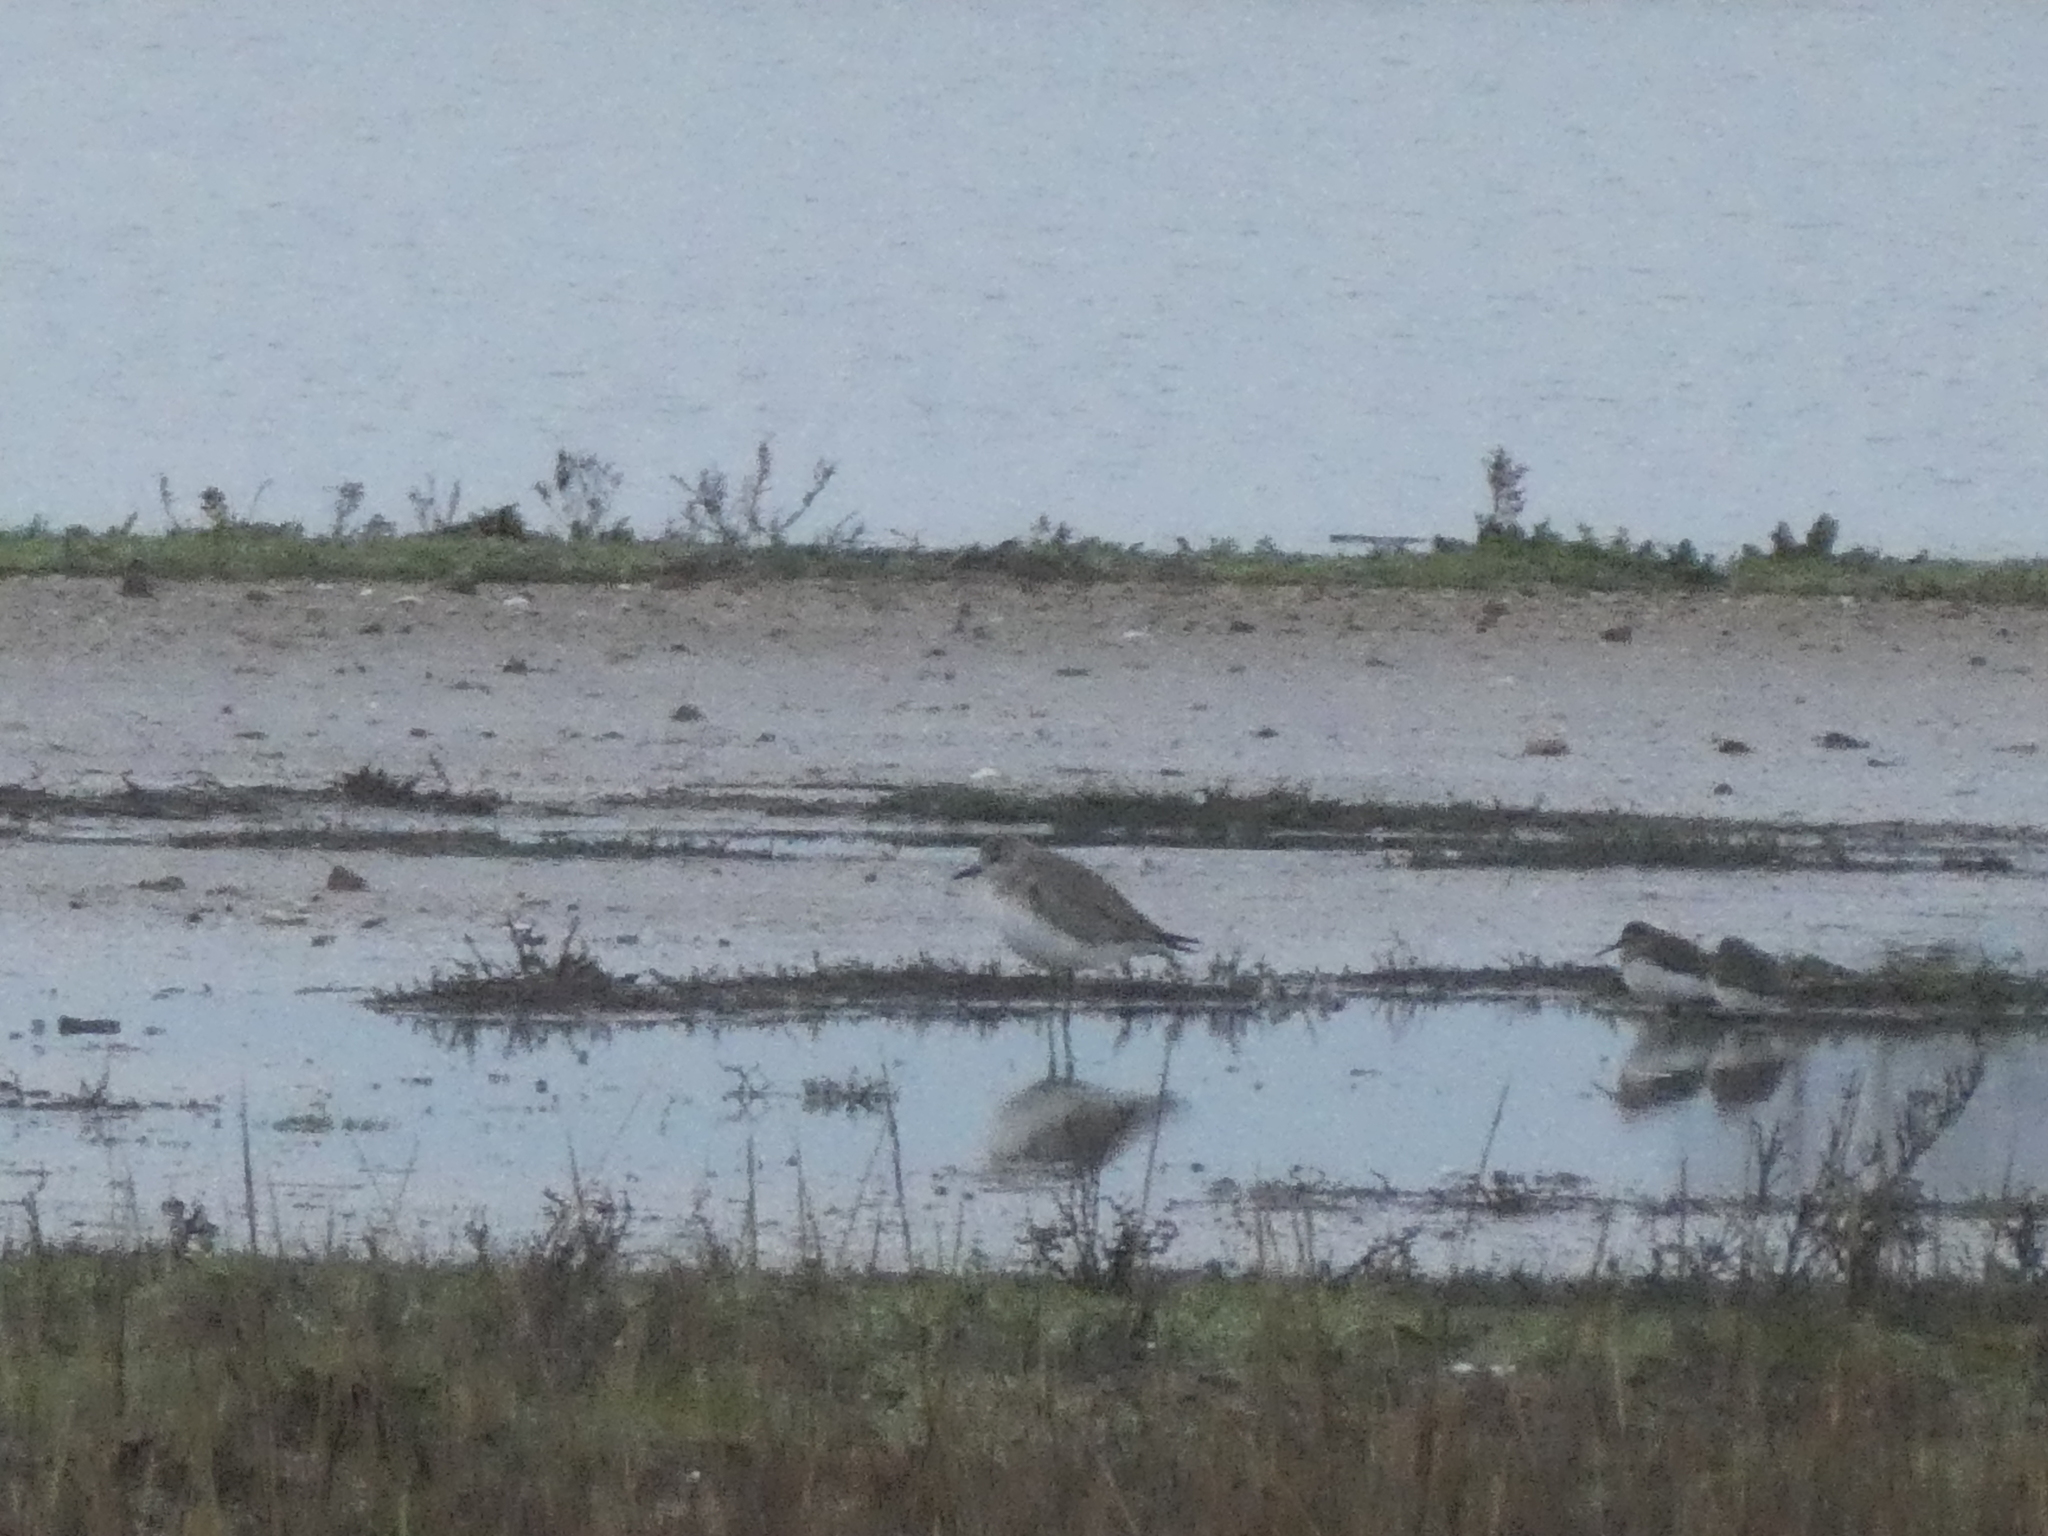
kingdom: Animalia
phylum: Chordata
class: Aves
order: Charadriiformes
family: Charadriidae
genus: Pluvialis
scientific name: Pluvialis squatarola
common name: Grey plover
